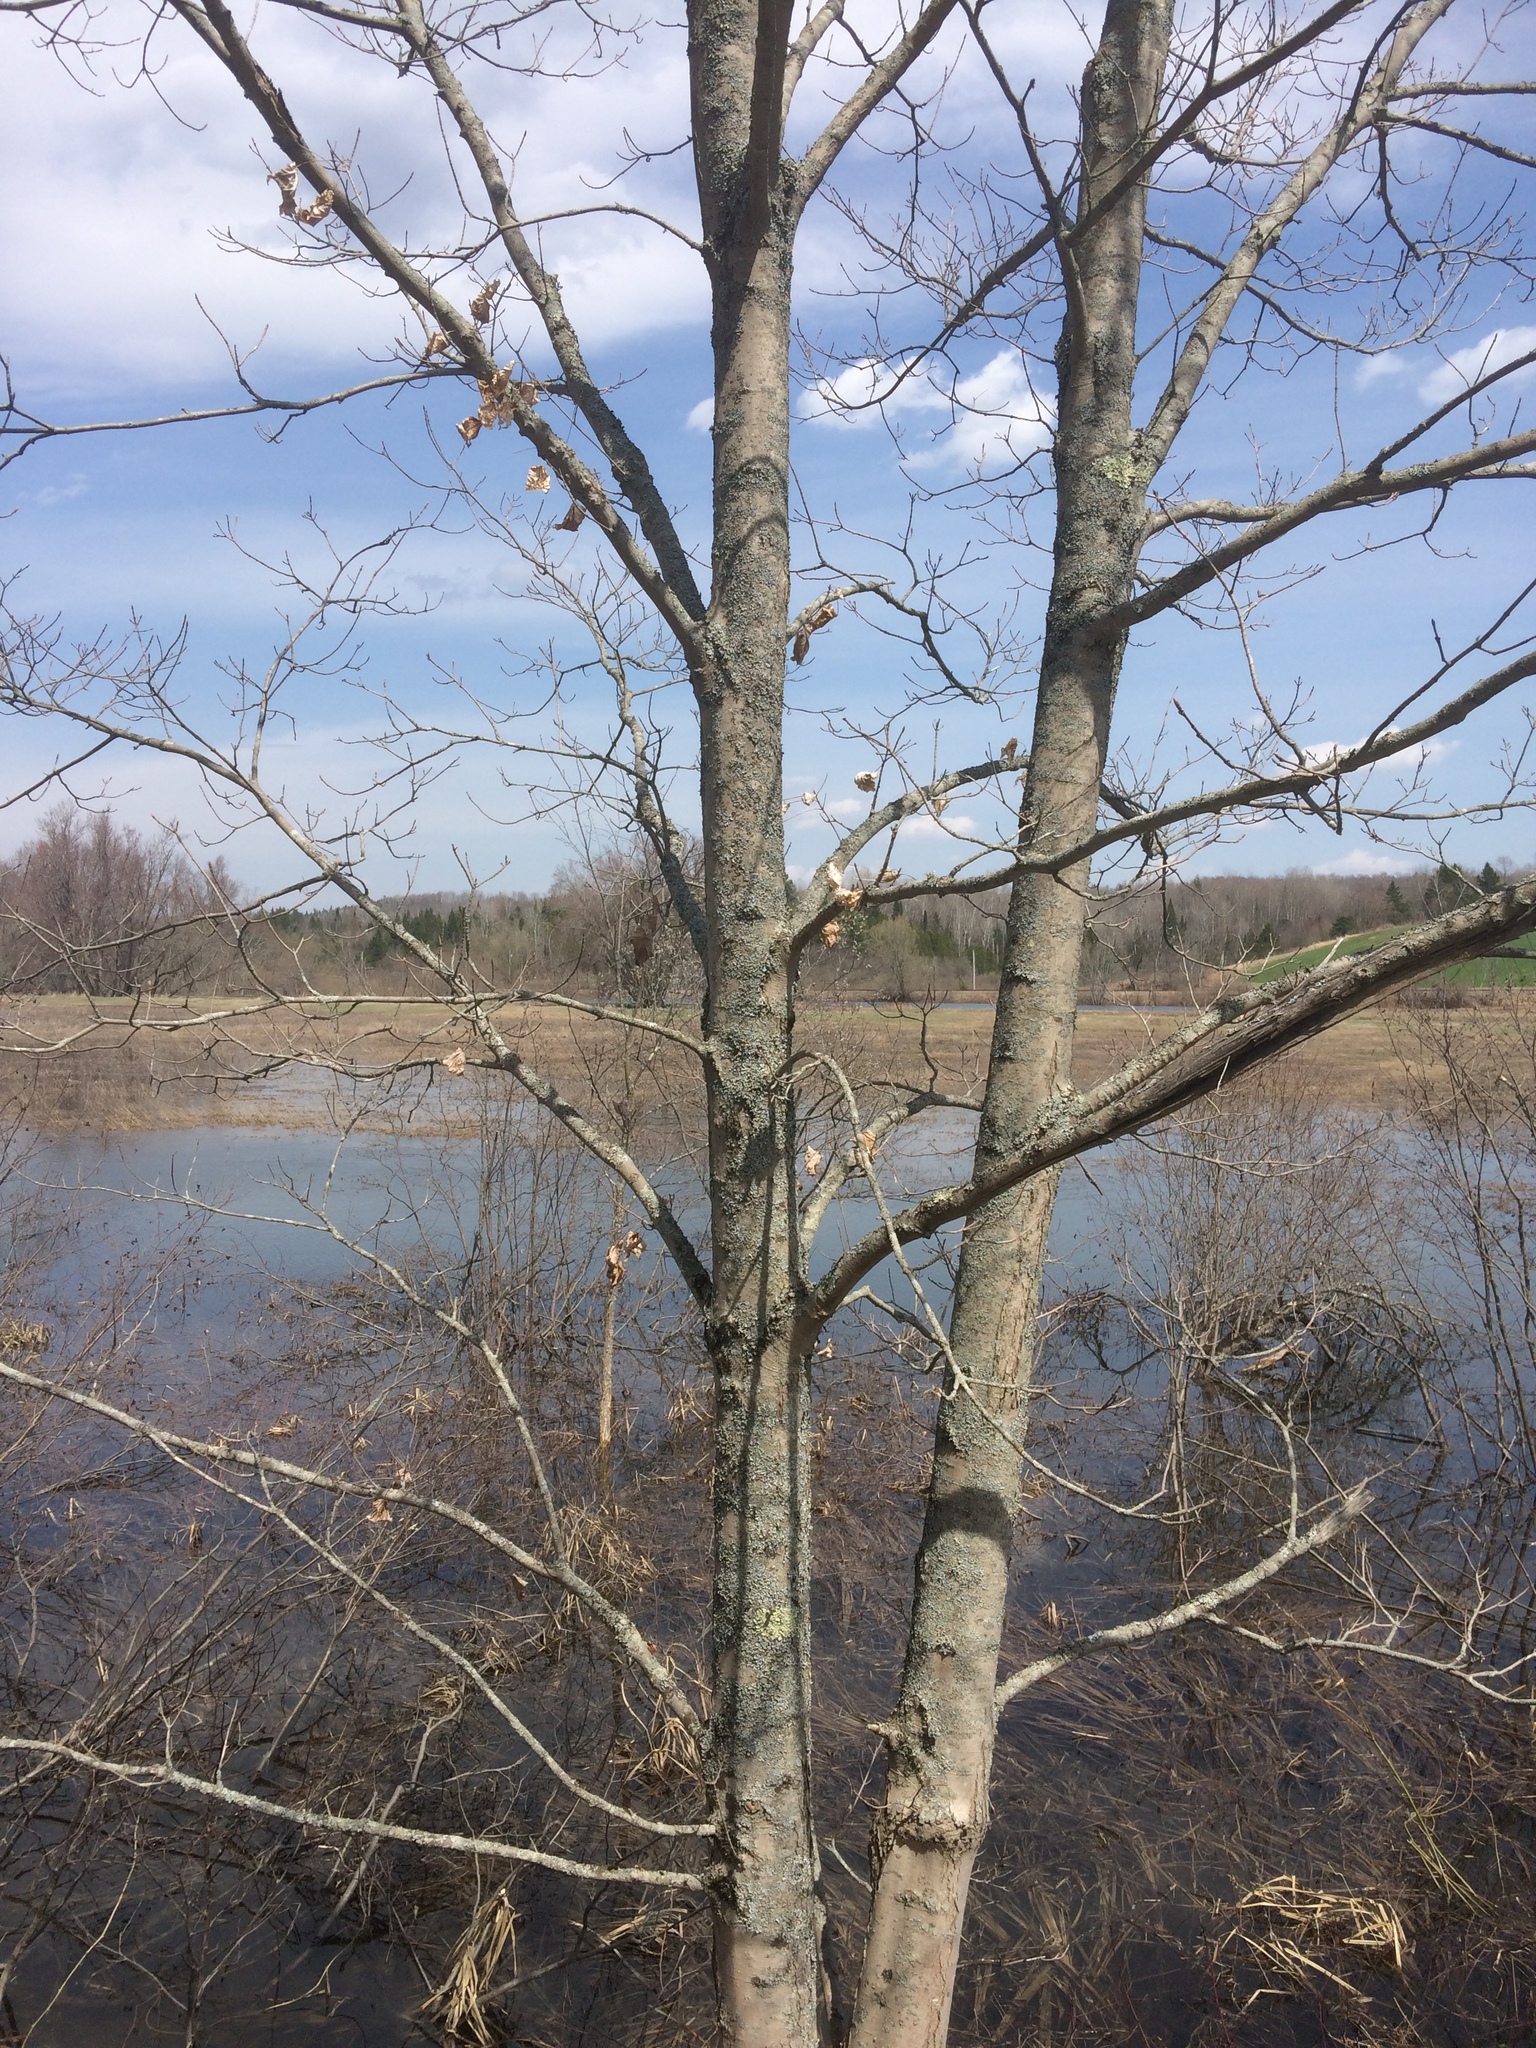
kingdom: Plantae
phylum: Tracheophyta
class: Magnoliopsida
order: Sapindales
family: Sapindaceae
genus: Acer
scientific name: Acer rubrum
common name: Red maple
